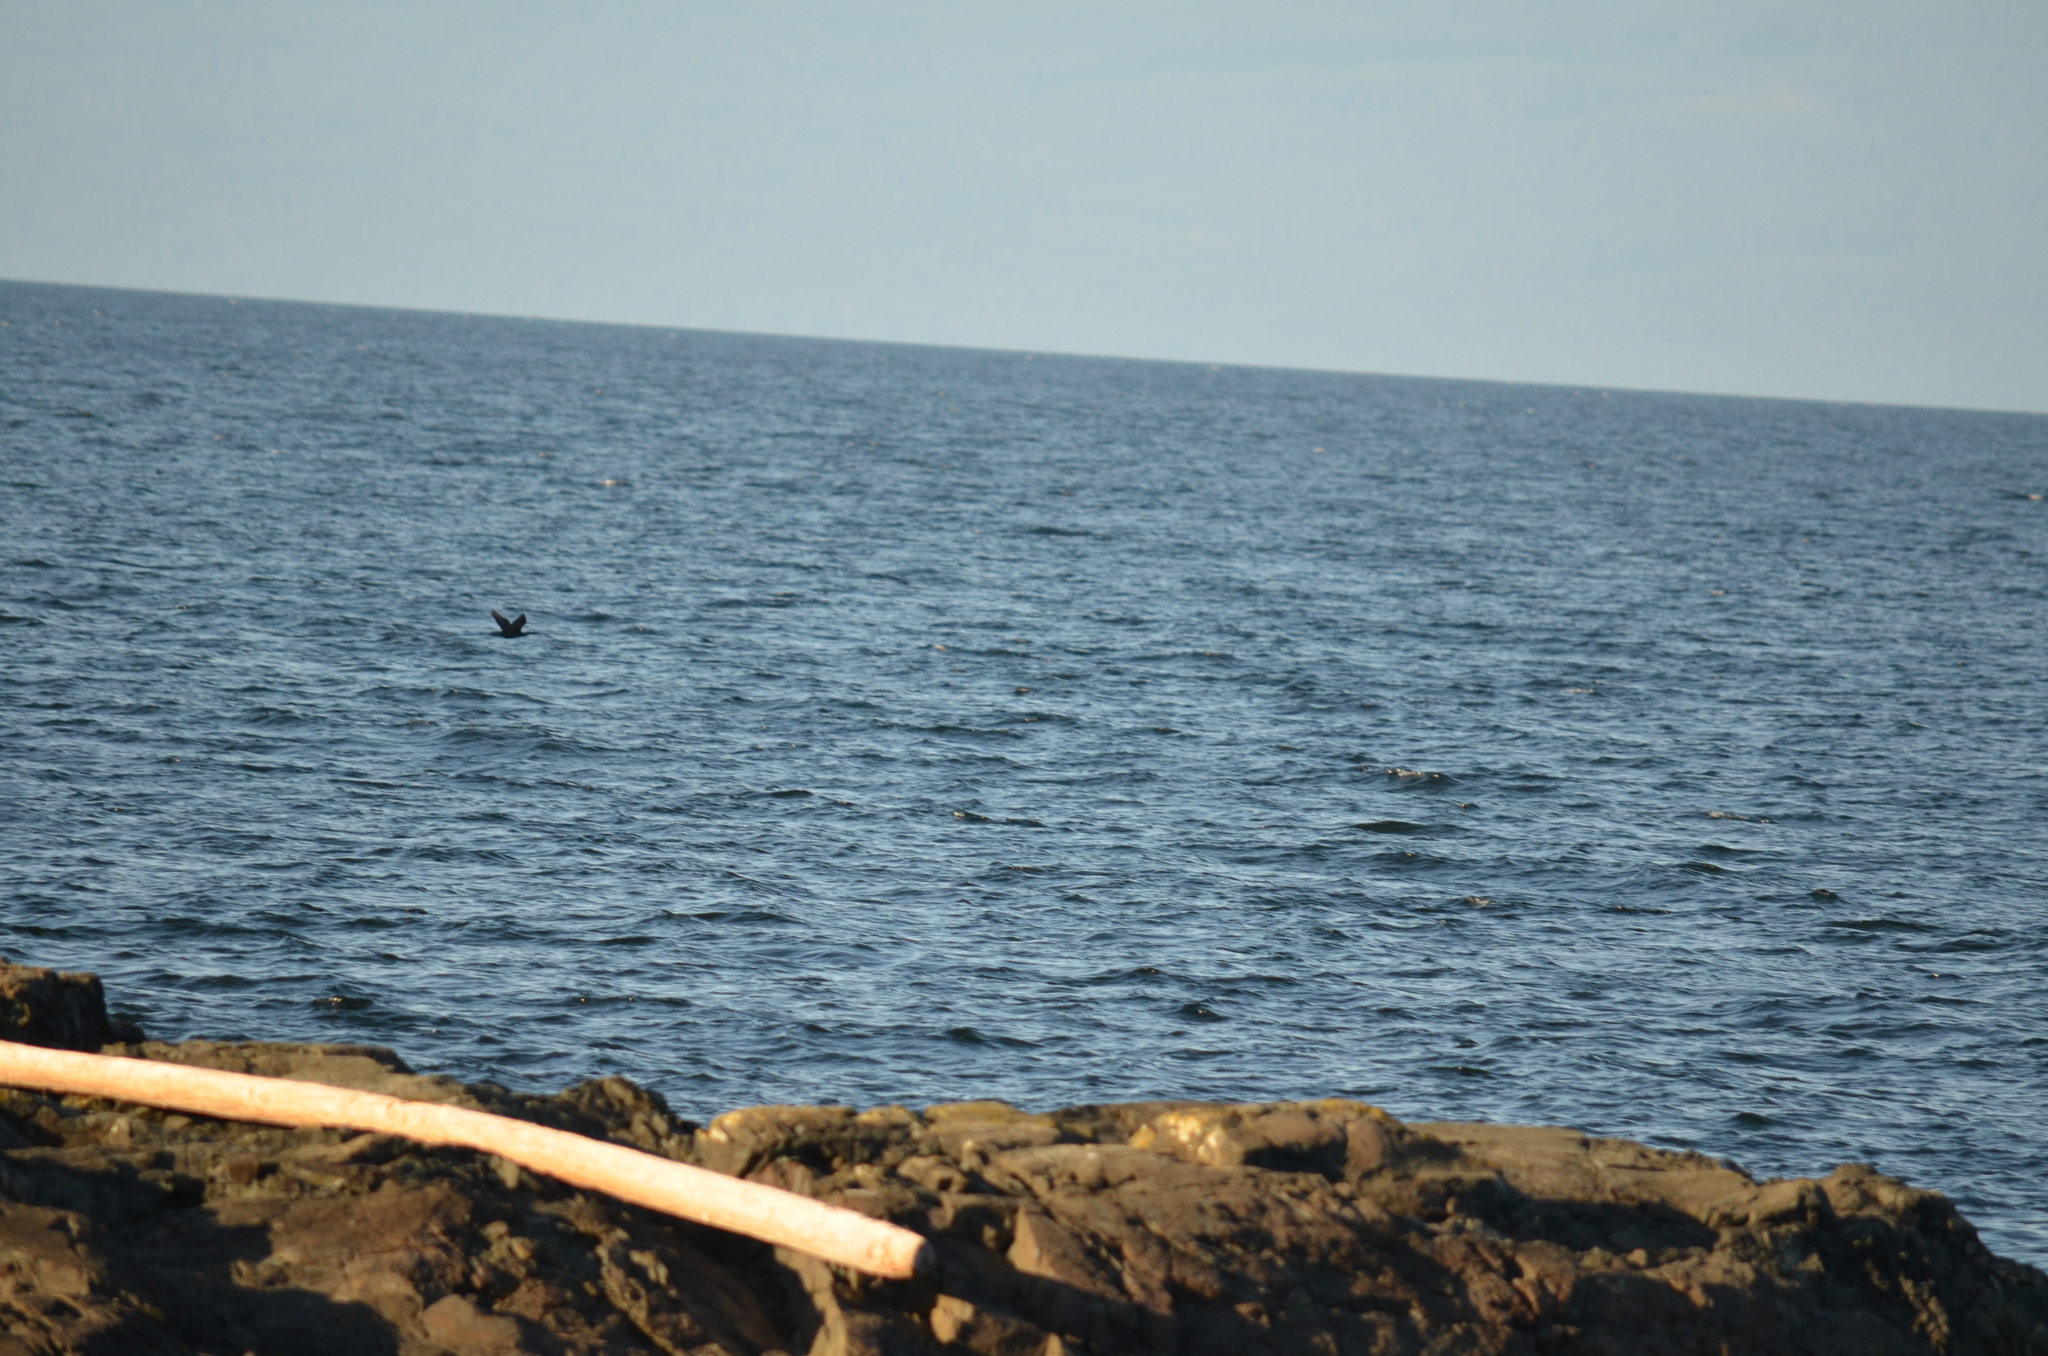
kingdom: Animalia
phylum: Chordata
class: Aves
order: Suliformes
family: Phalacrocoracidae
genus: Phalacrocorax
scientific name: Phalacrocorax pelagicus
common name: Pelagic cormorant
